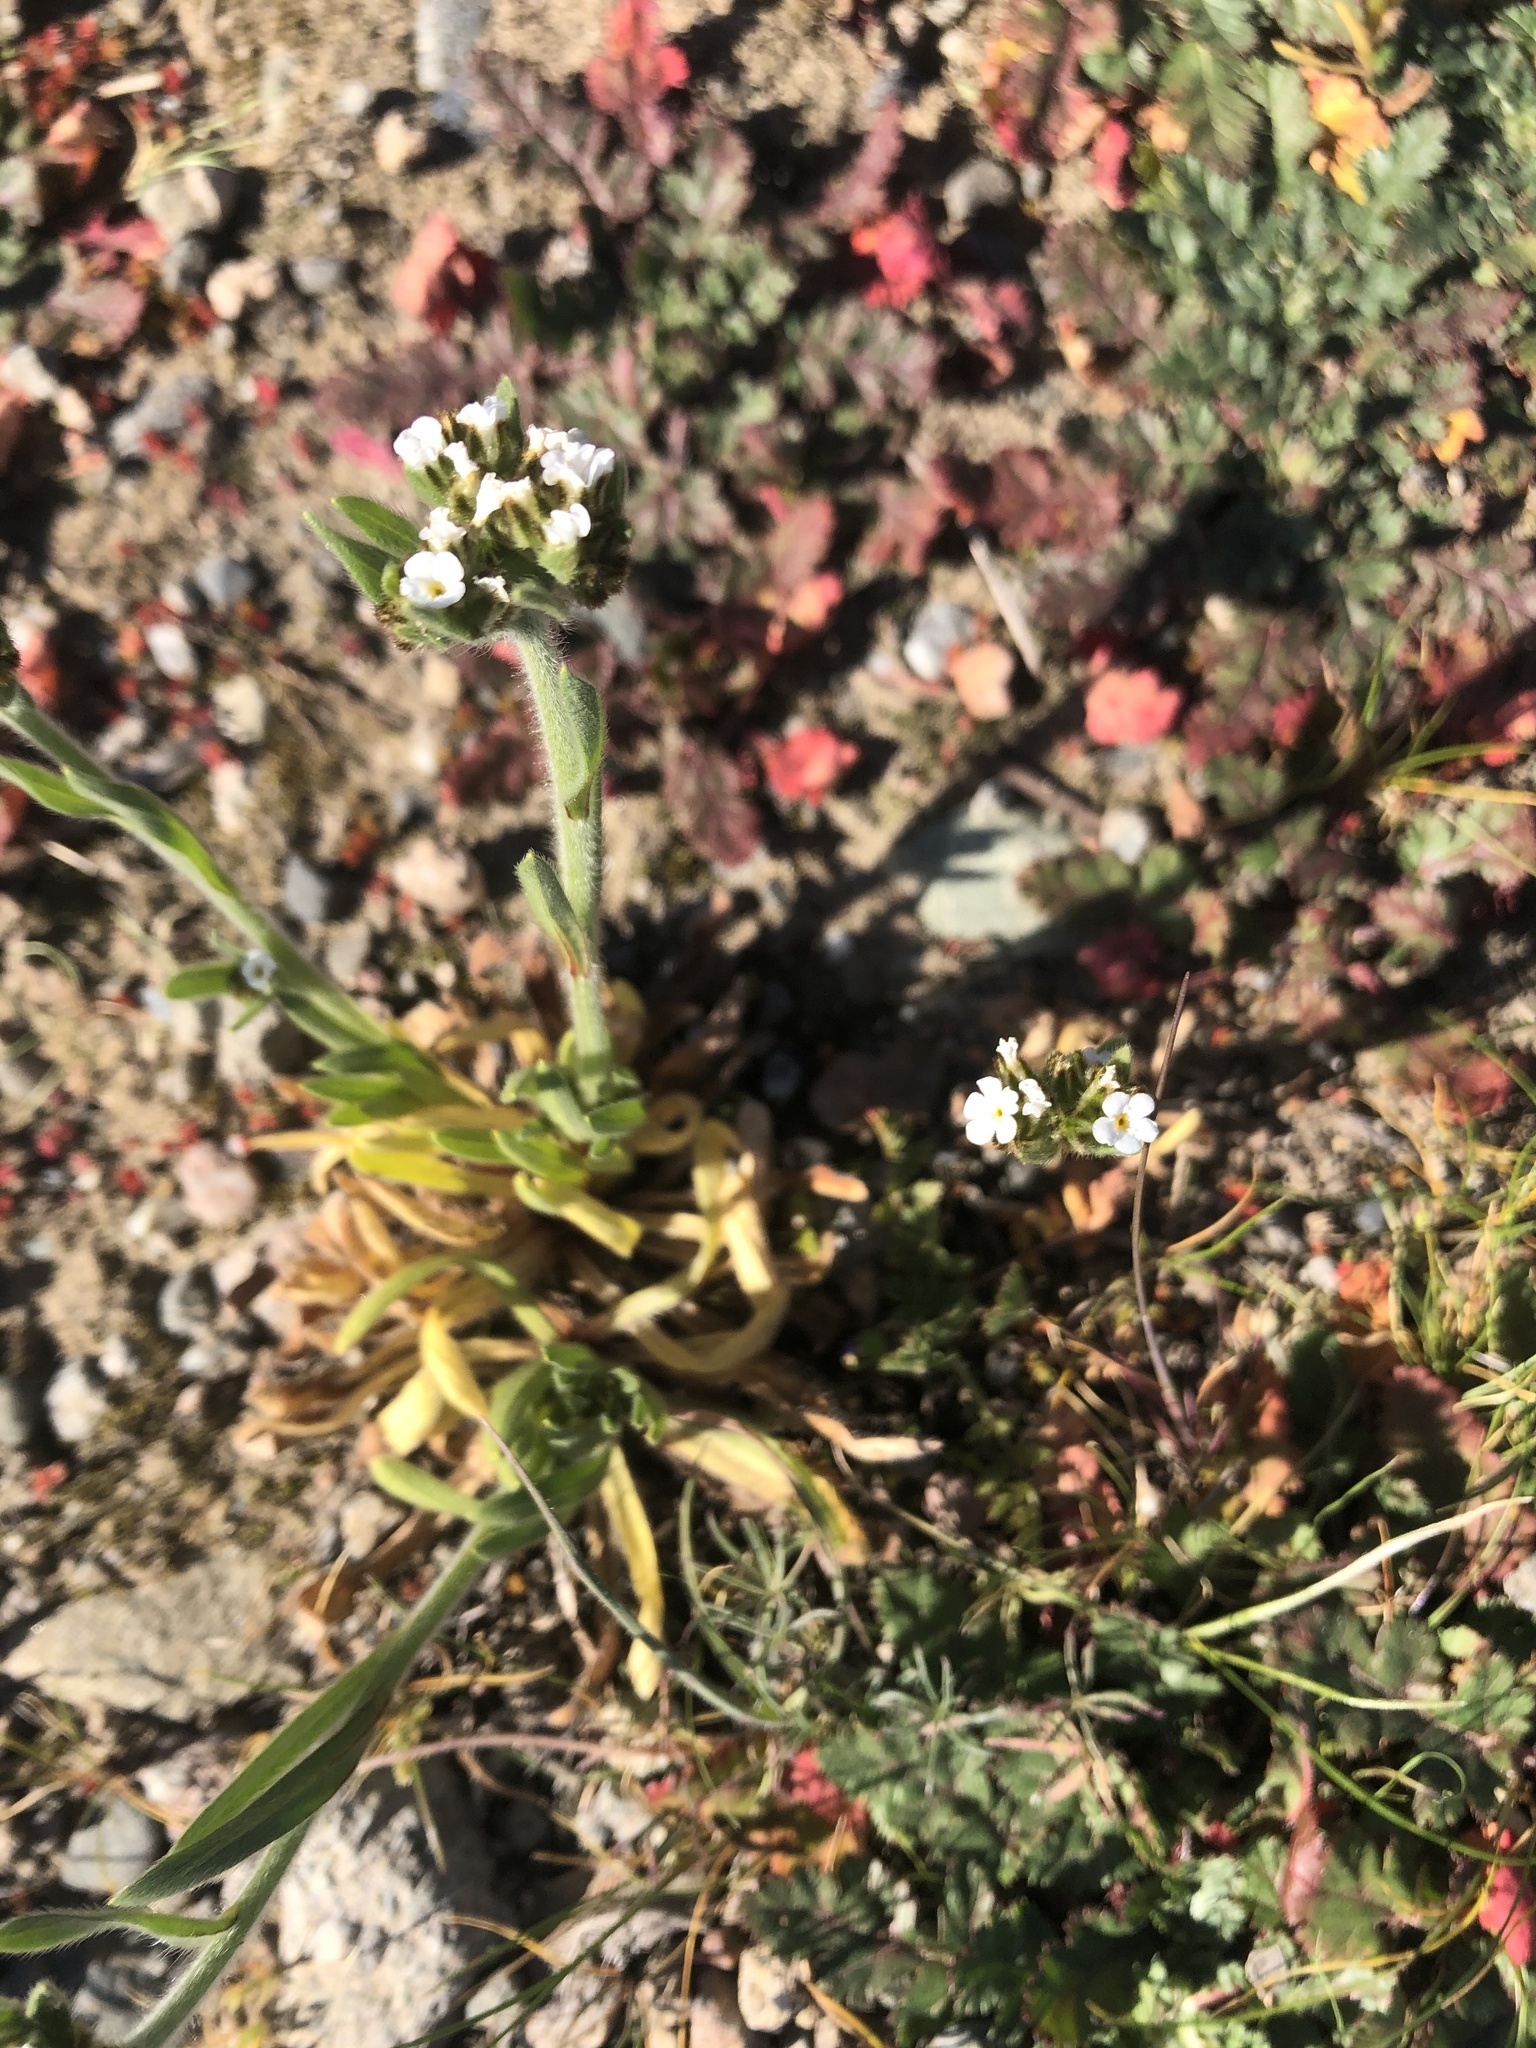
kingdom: Plantae
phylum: Tracheophyta
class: Magnoliopsida
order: Boraginales
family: Boraginaceae
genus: Plagiobothrys
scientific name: Plagiobothrys nothofulvus
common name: Popcorn-flower
